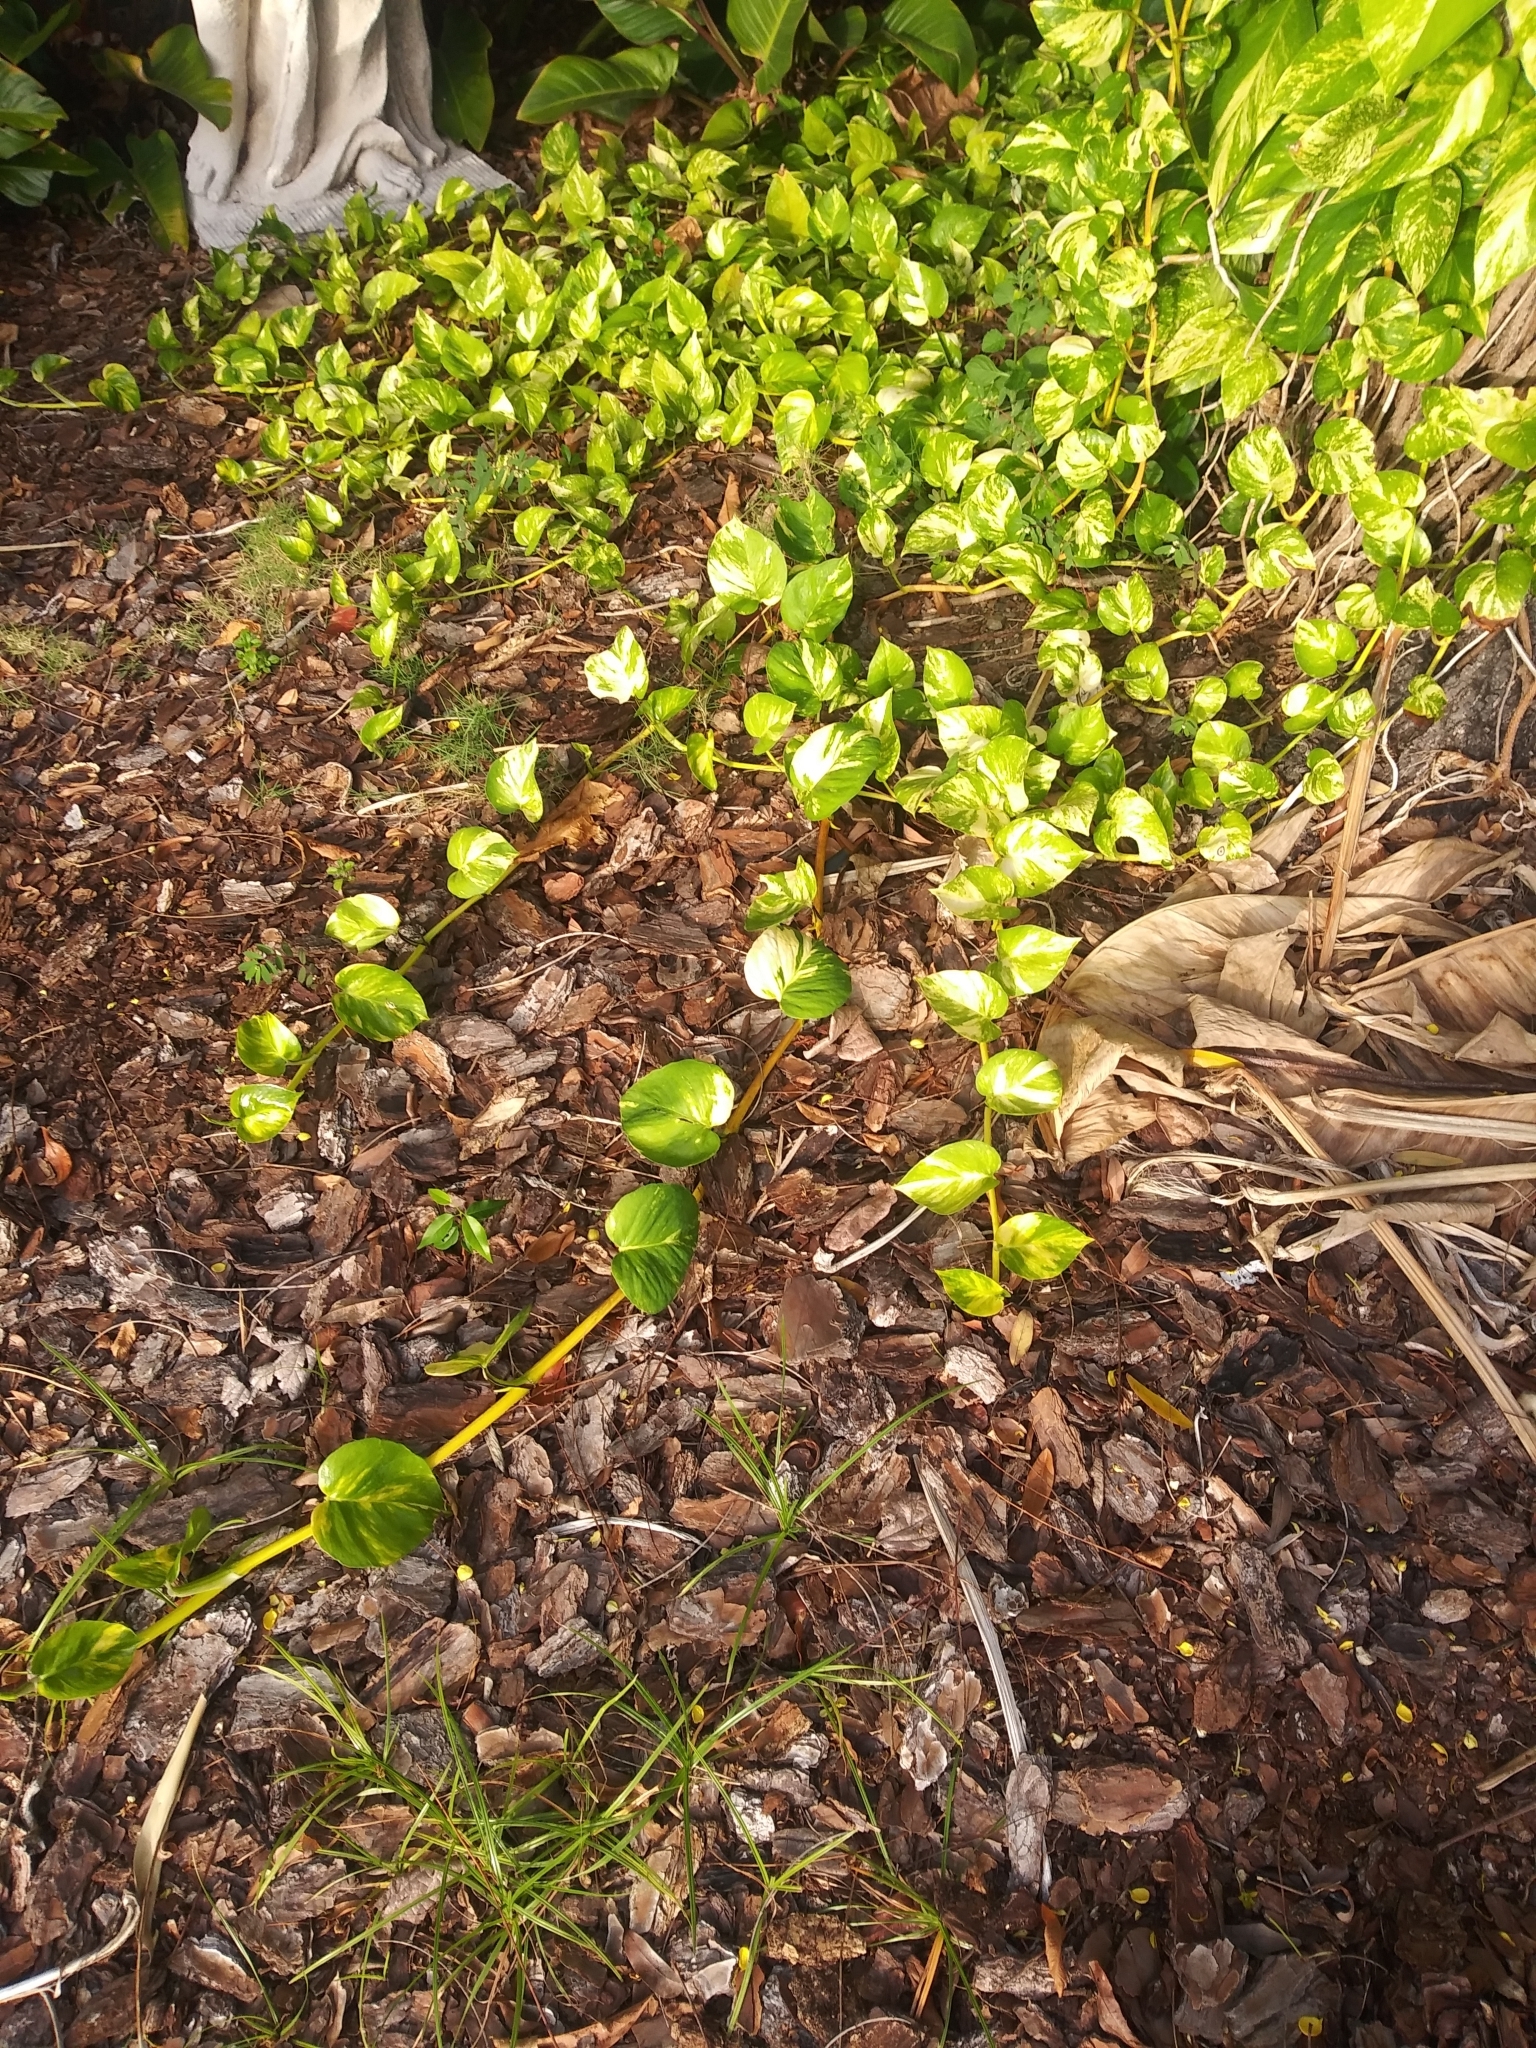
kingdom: Plantae
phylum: Tracheophyta
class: Liliopsida
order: Alismatales
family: Araceae
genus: Epipremnum
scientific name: Epipremnum aureum
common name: Golden hunter's-robe
